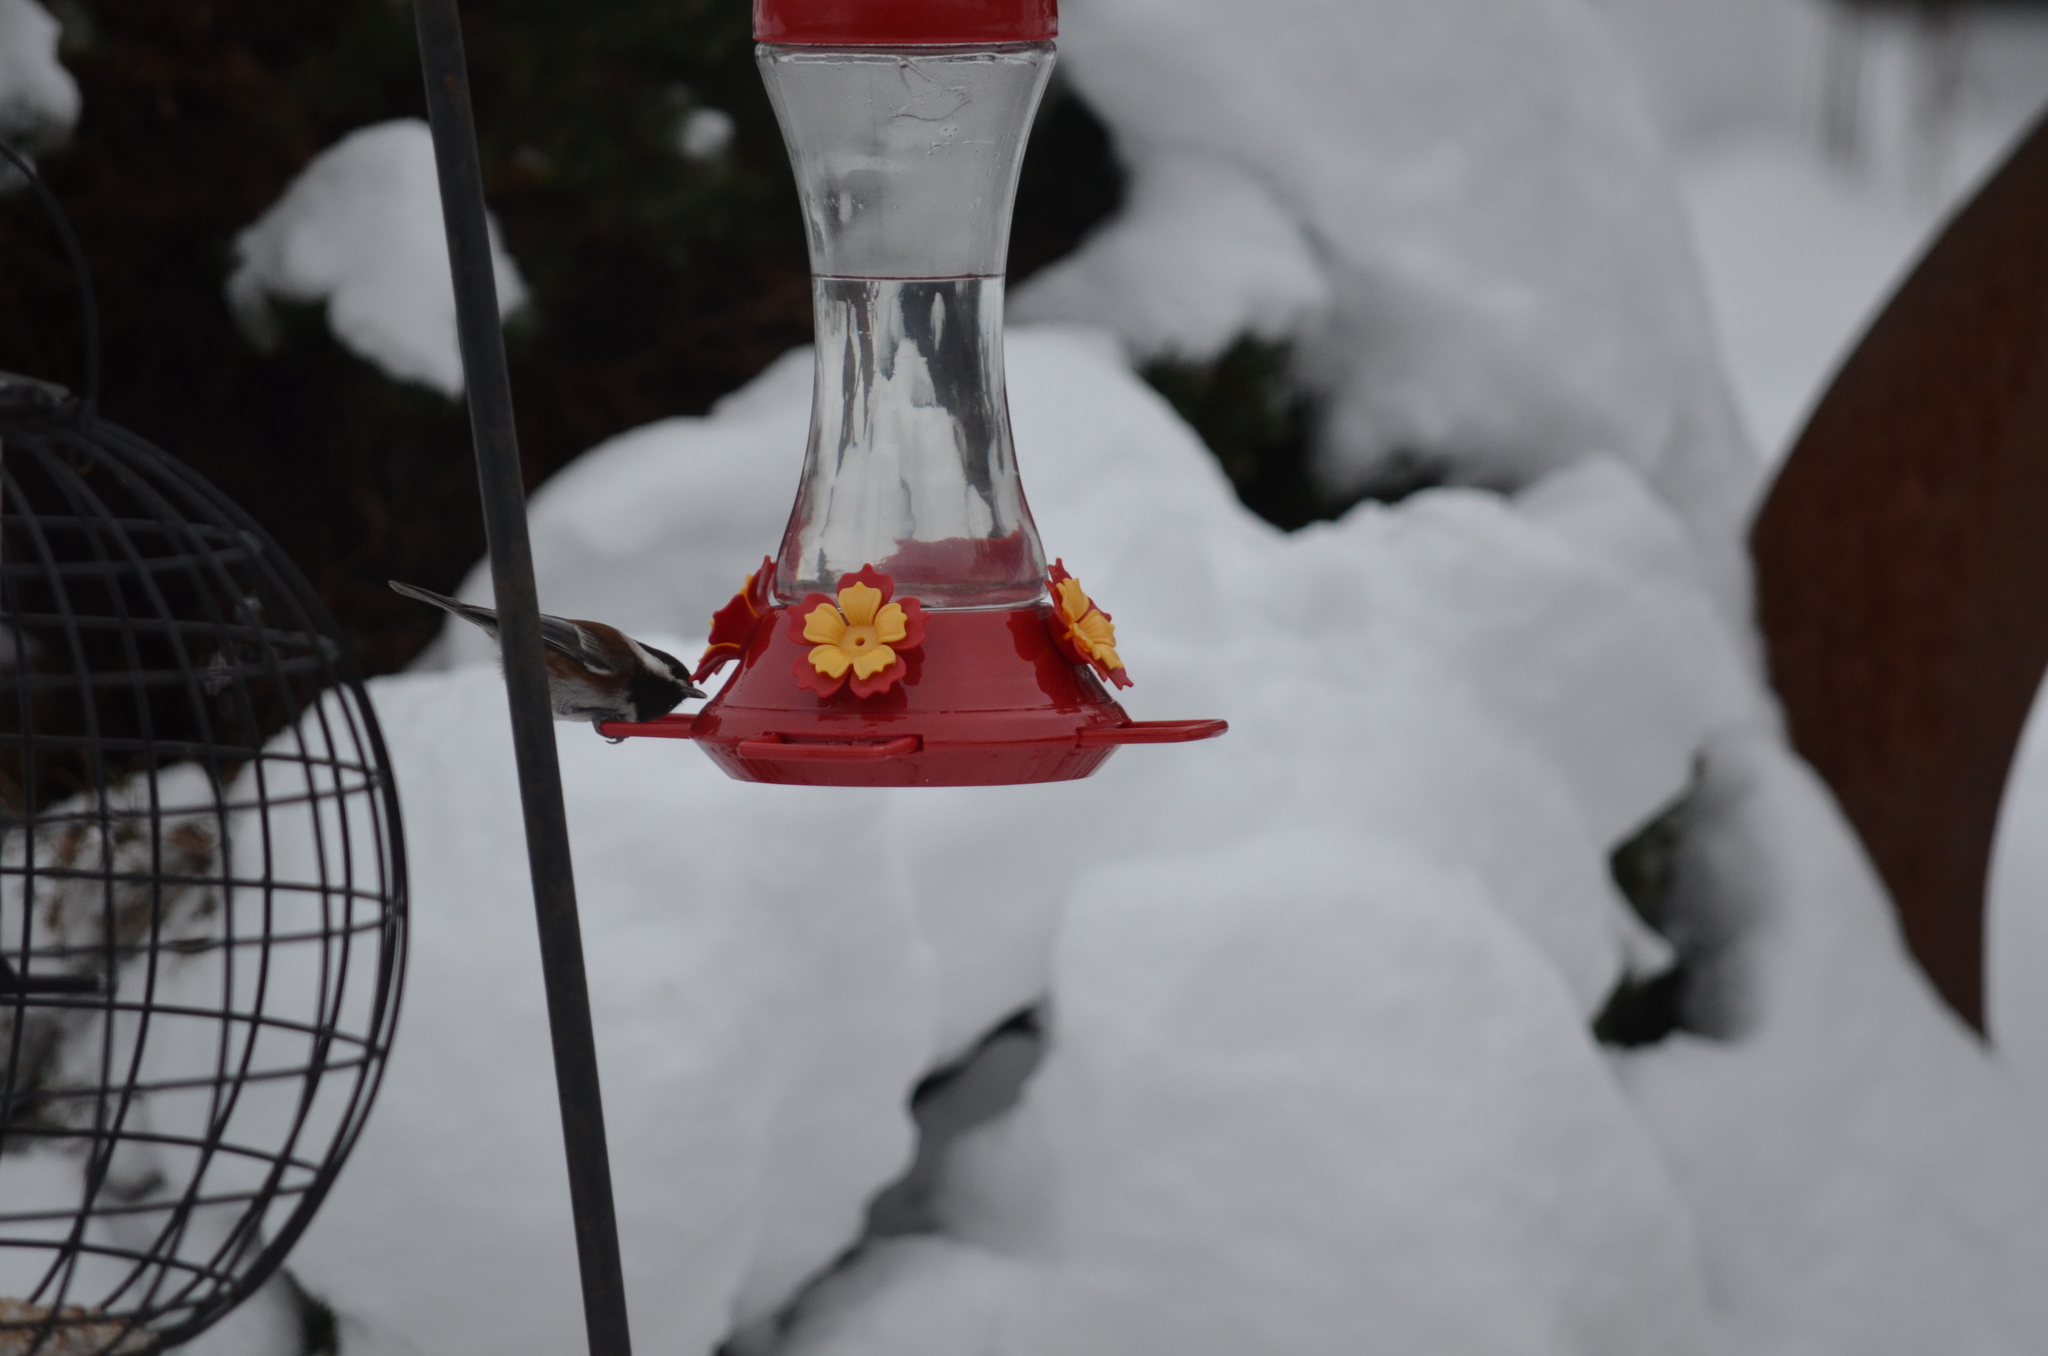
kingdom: Animalia
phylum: Chordata
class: Aves
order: Passeriformes
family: Paridae
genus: Poecile
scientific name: Poecile rufescens
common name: Chestnut-backed chickadee
